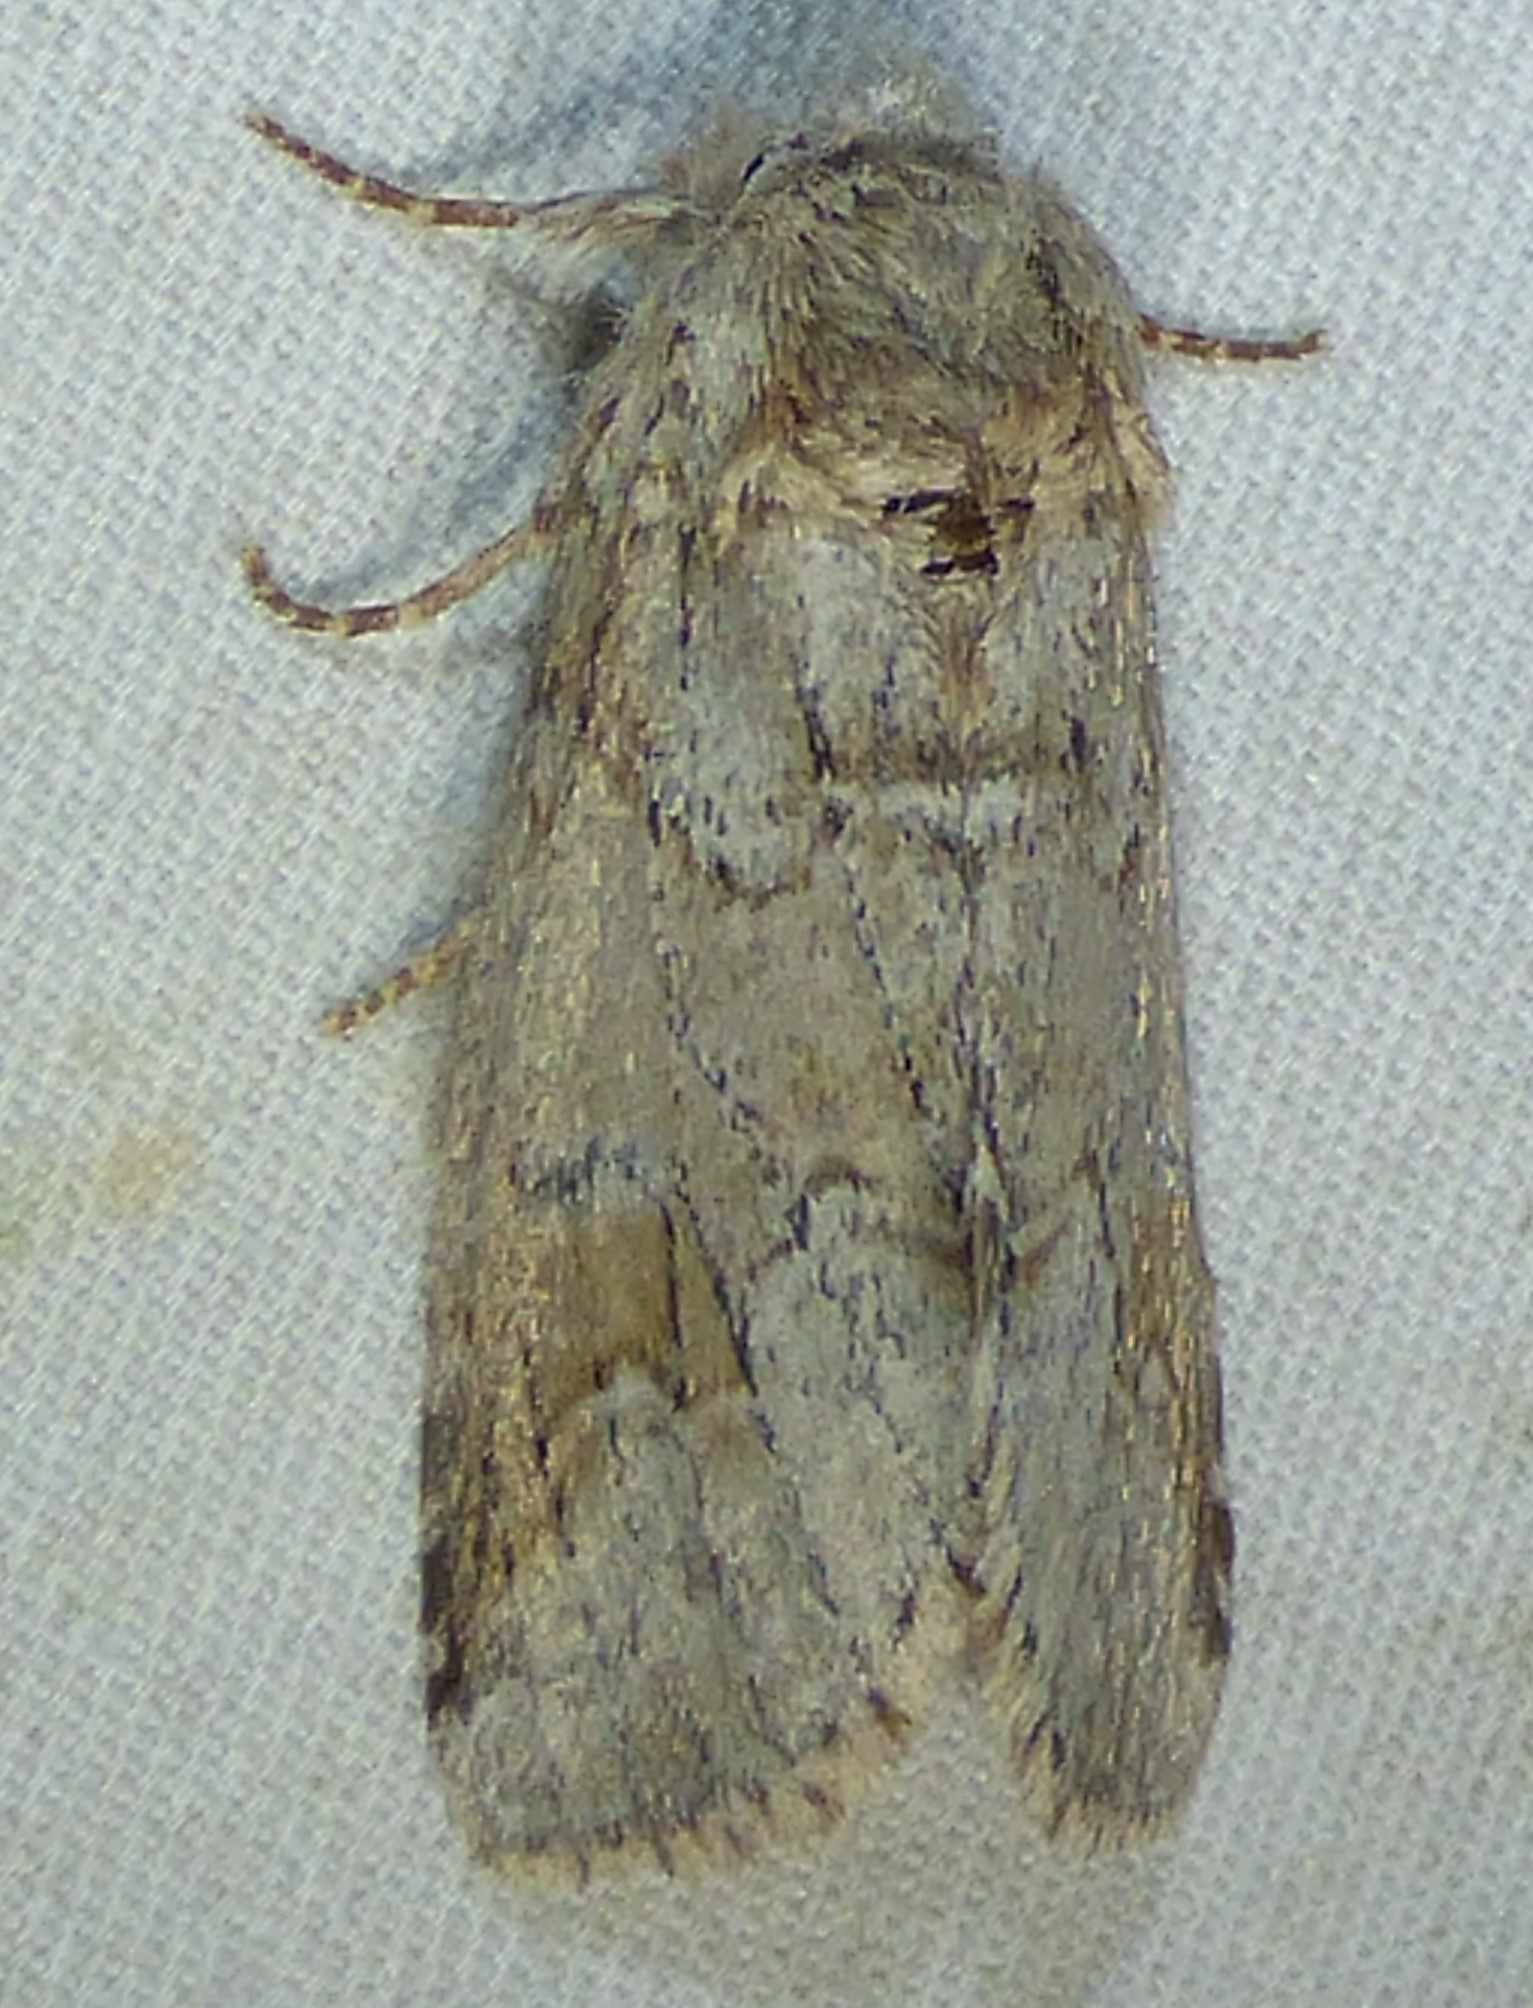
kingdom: Animalia
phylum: Arthropoda
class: Insecta
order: Lepidoptera
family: Notodontidae
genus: Lochmaeus
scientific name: Lochmaeus bilineata
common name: Double-lined prominent
